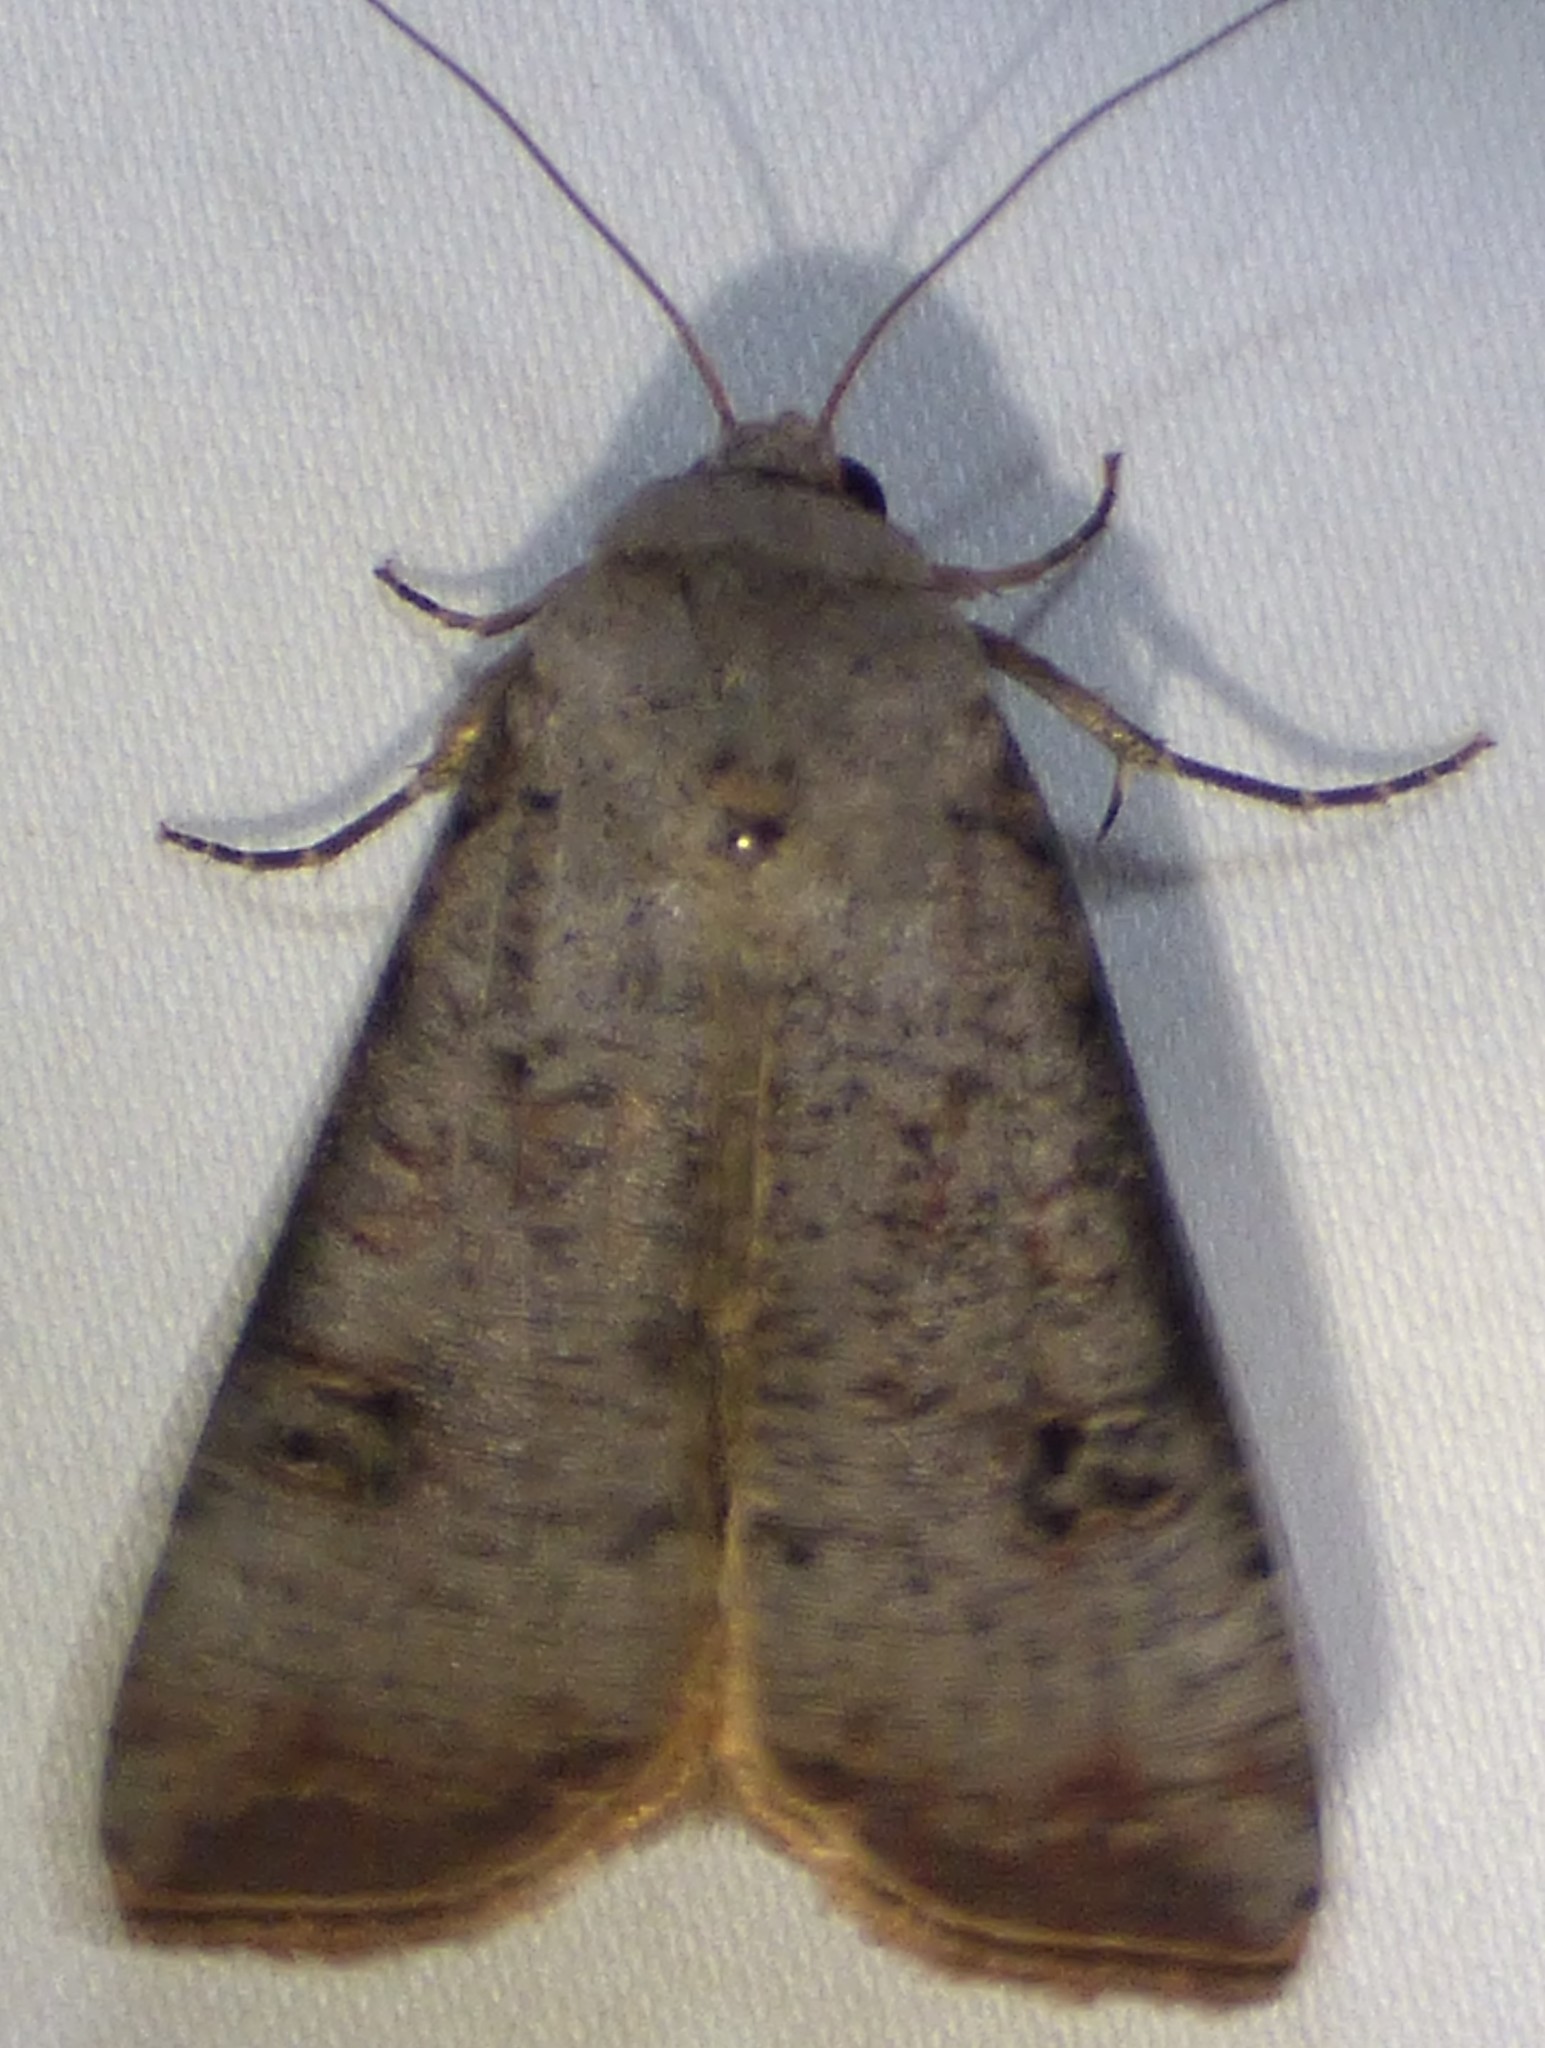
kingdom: Animalia
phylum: Arthropoda
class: Insecta
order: Lepidoptera
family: Noctuidae
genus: Anicla
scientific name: Anicla infecta
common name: Green cutworm
